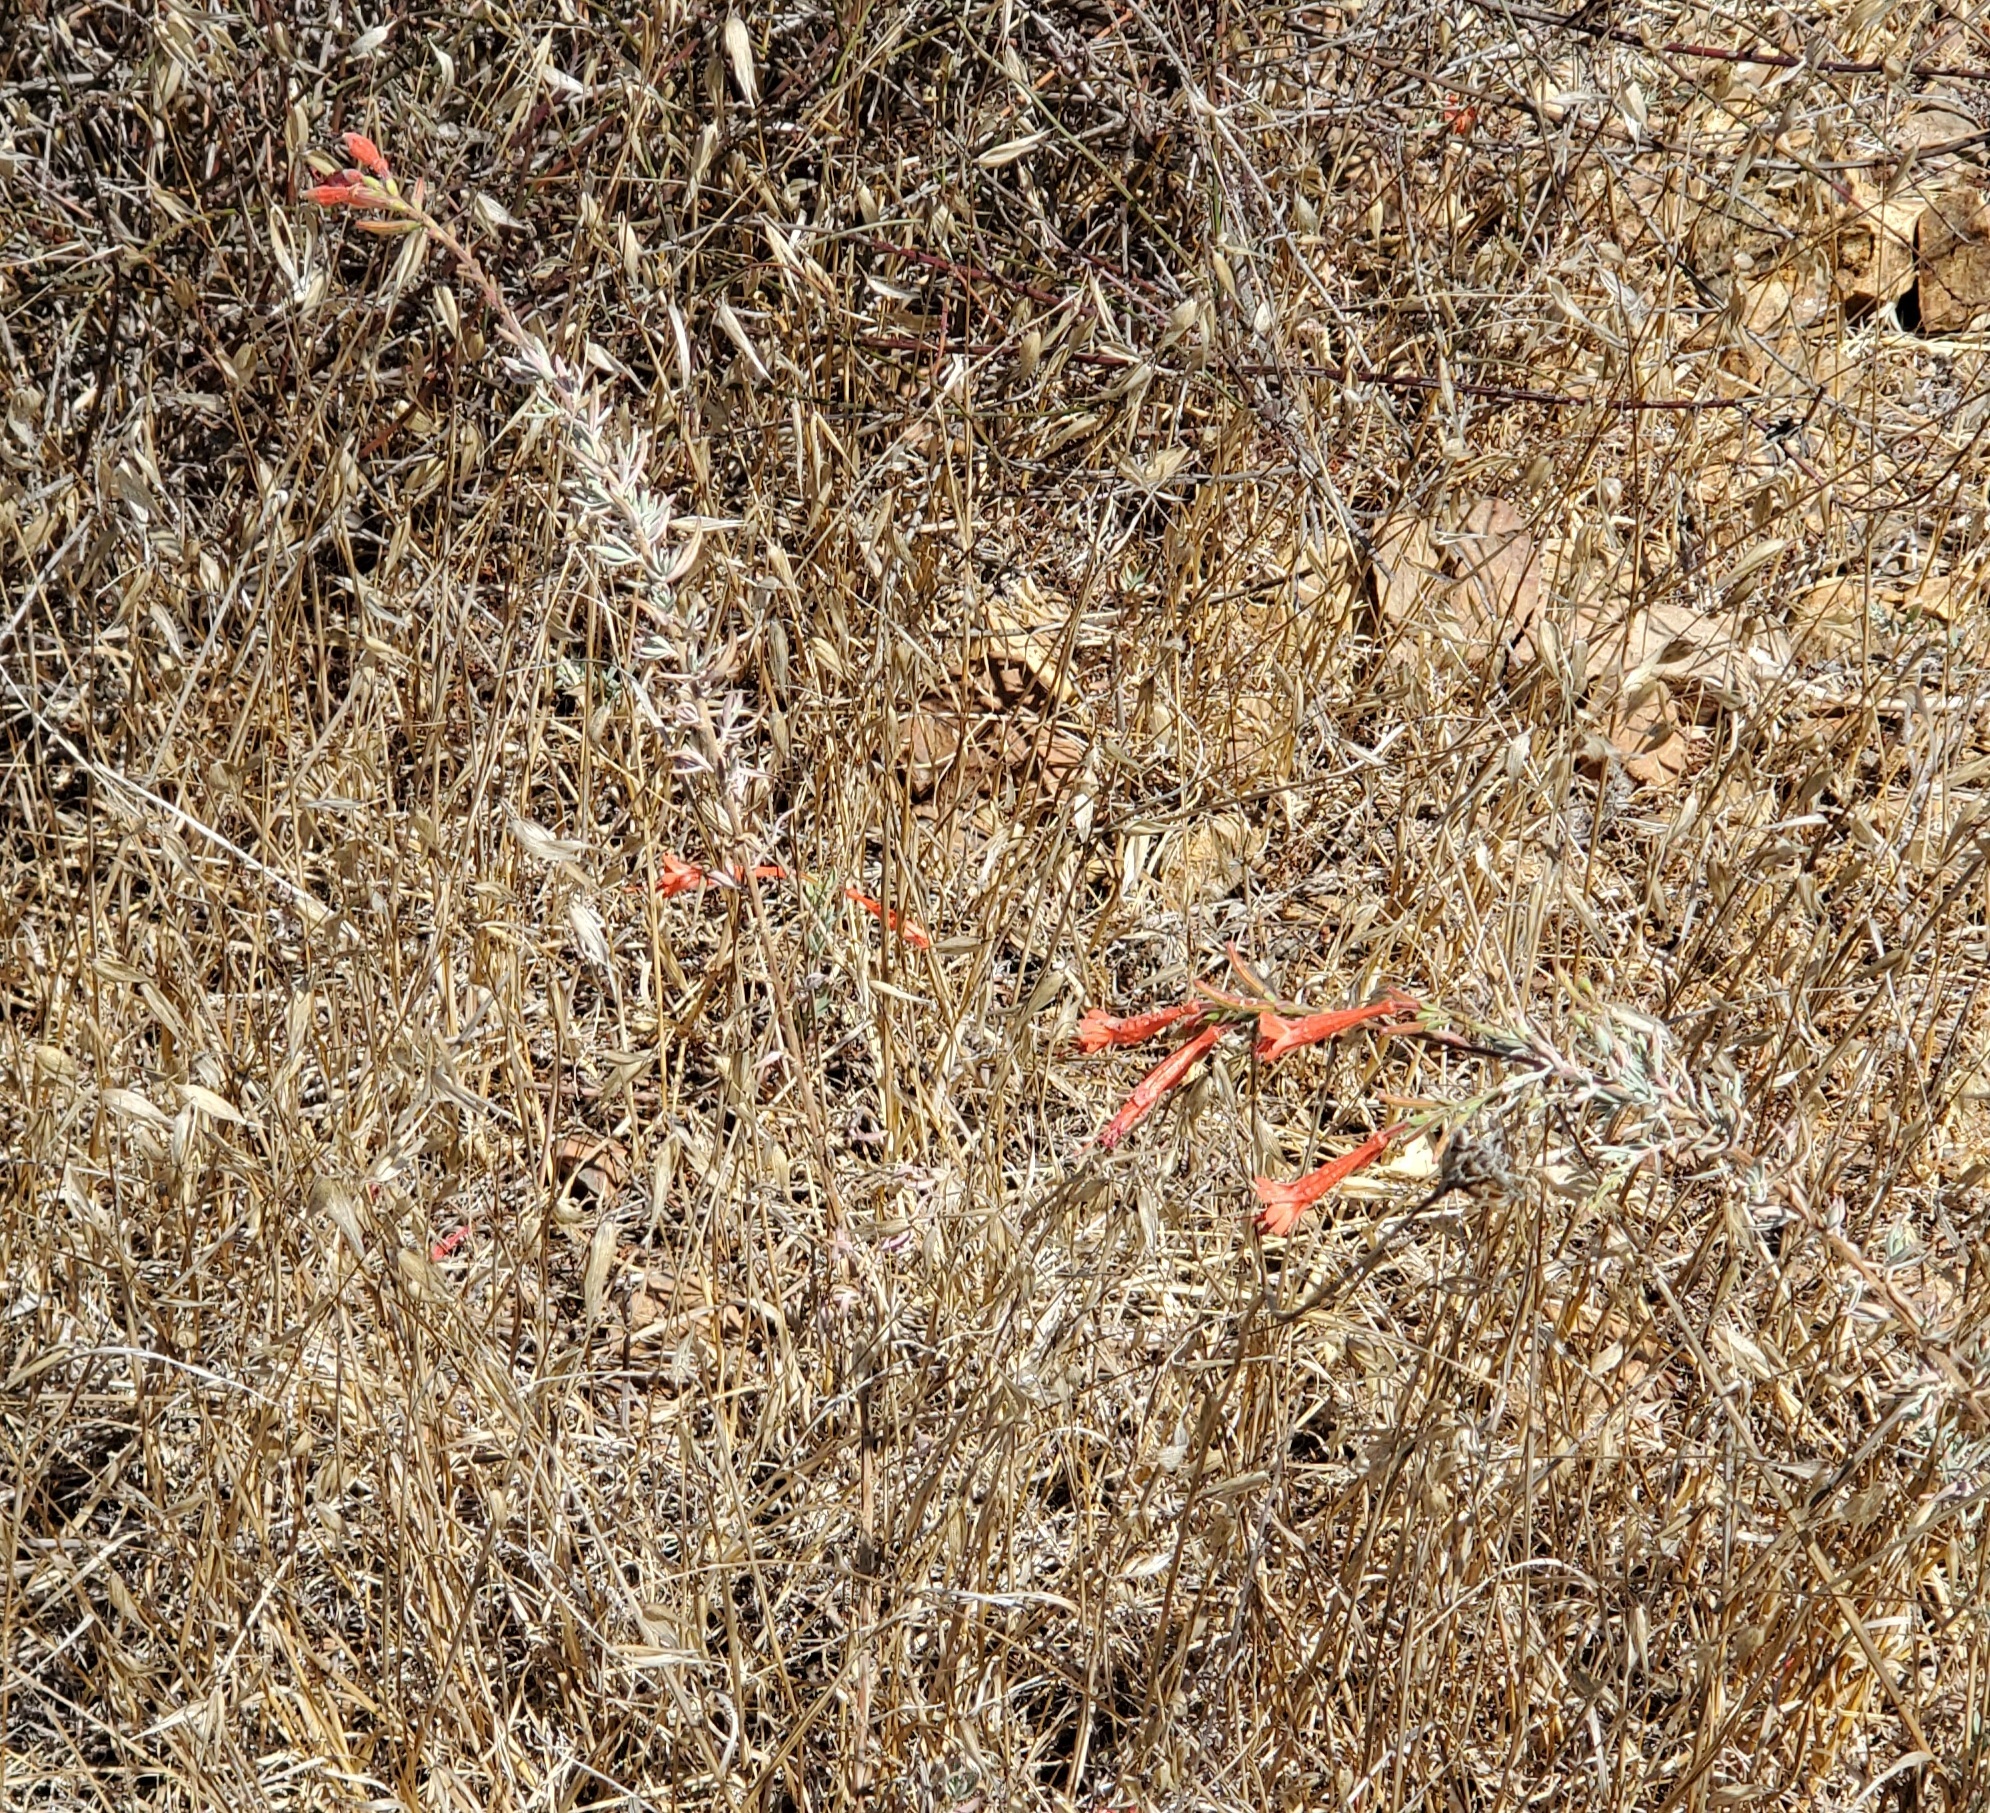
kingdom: Plantae
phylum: Tracheophyta
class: Magnoliopsida
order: Myrtales
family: Onagraceae
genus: Epilobium
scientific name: Epilobium canum
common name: California-fuchsia
